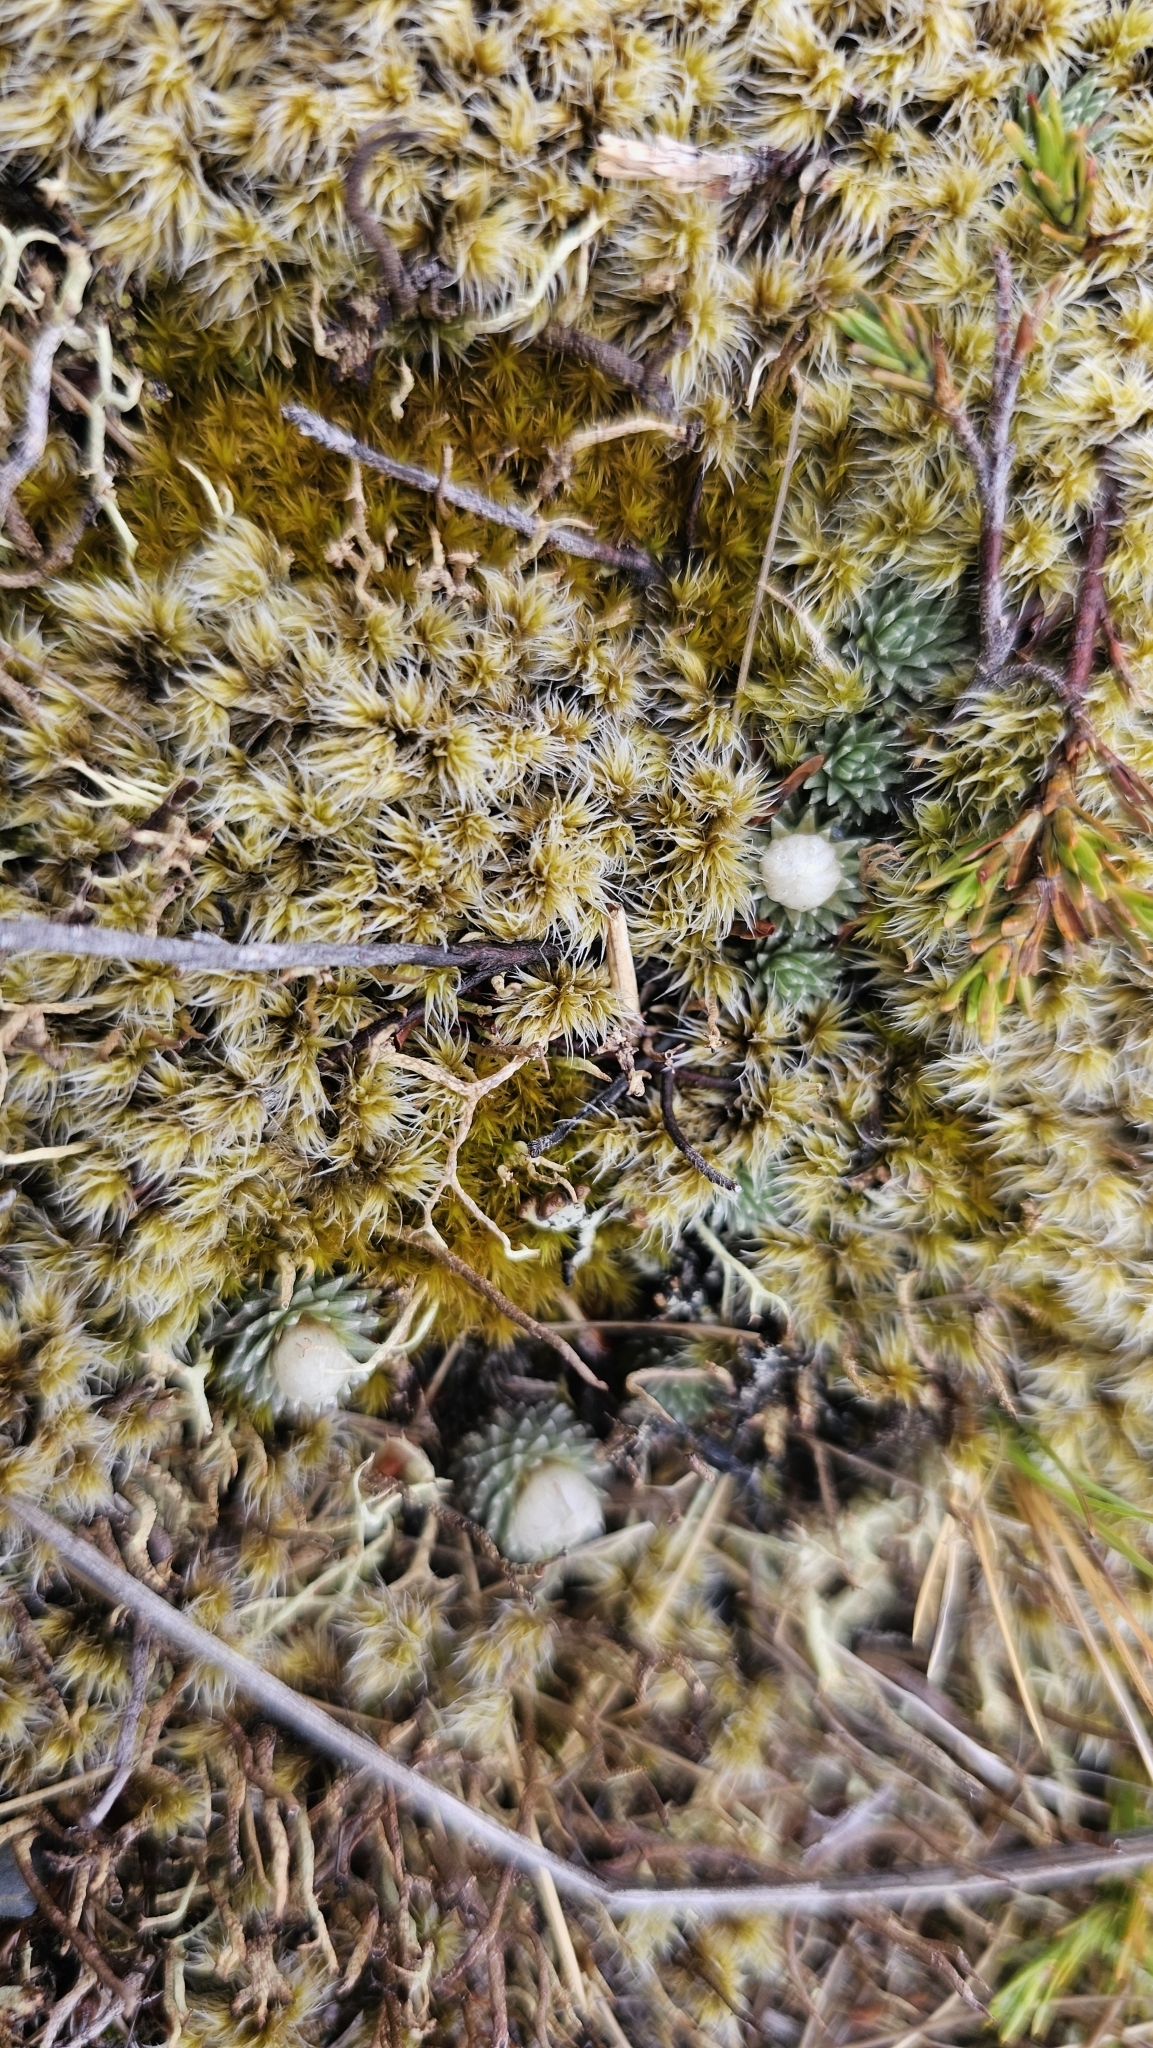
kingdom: Plantae
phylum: Tracheophyta
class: Magnoliopsida
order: Asterales
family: Asteraceae
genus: Raoulia
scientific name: Raoulia grandiflora
